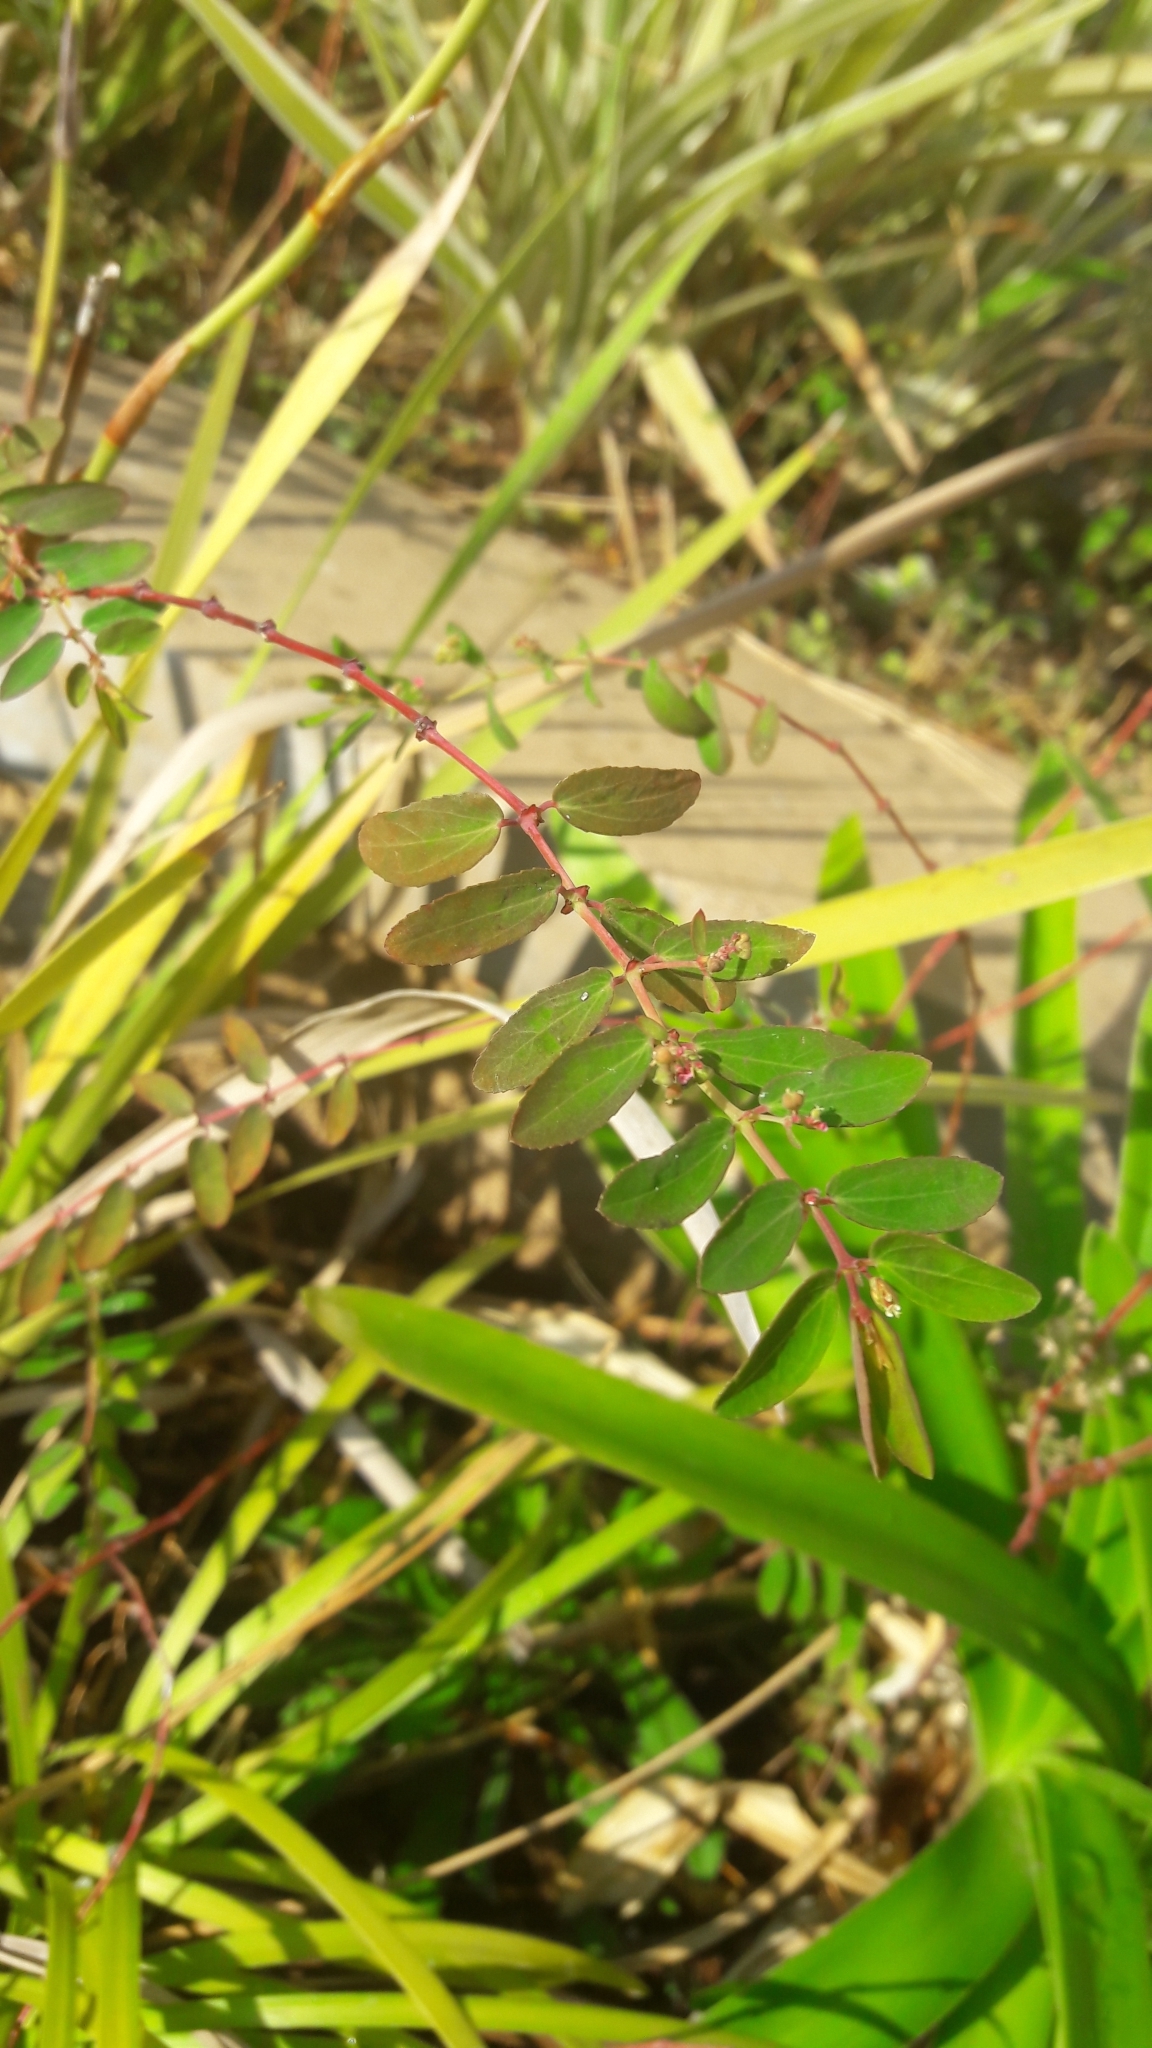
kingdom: Plantae
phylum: Tracheophyta
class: Magnoliopsida
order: Malpighiales
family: Euphorbiaceae
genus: Euphorbia
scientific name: Euphorbia hypericifolia
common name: Graceful sandmat
